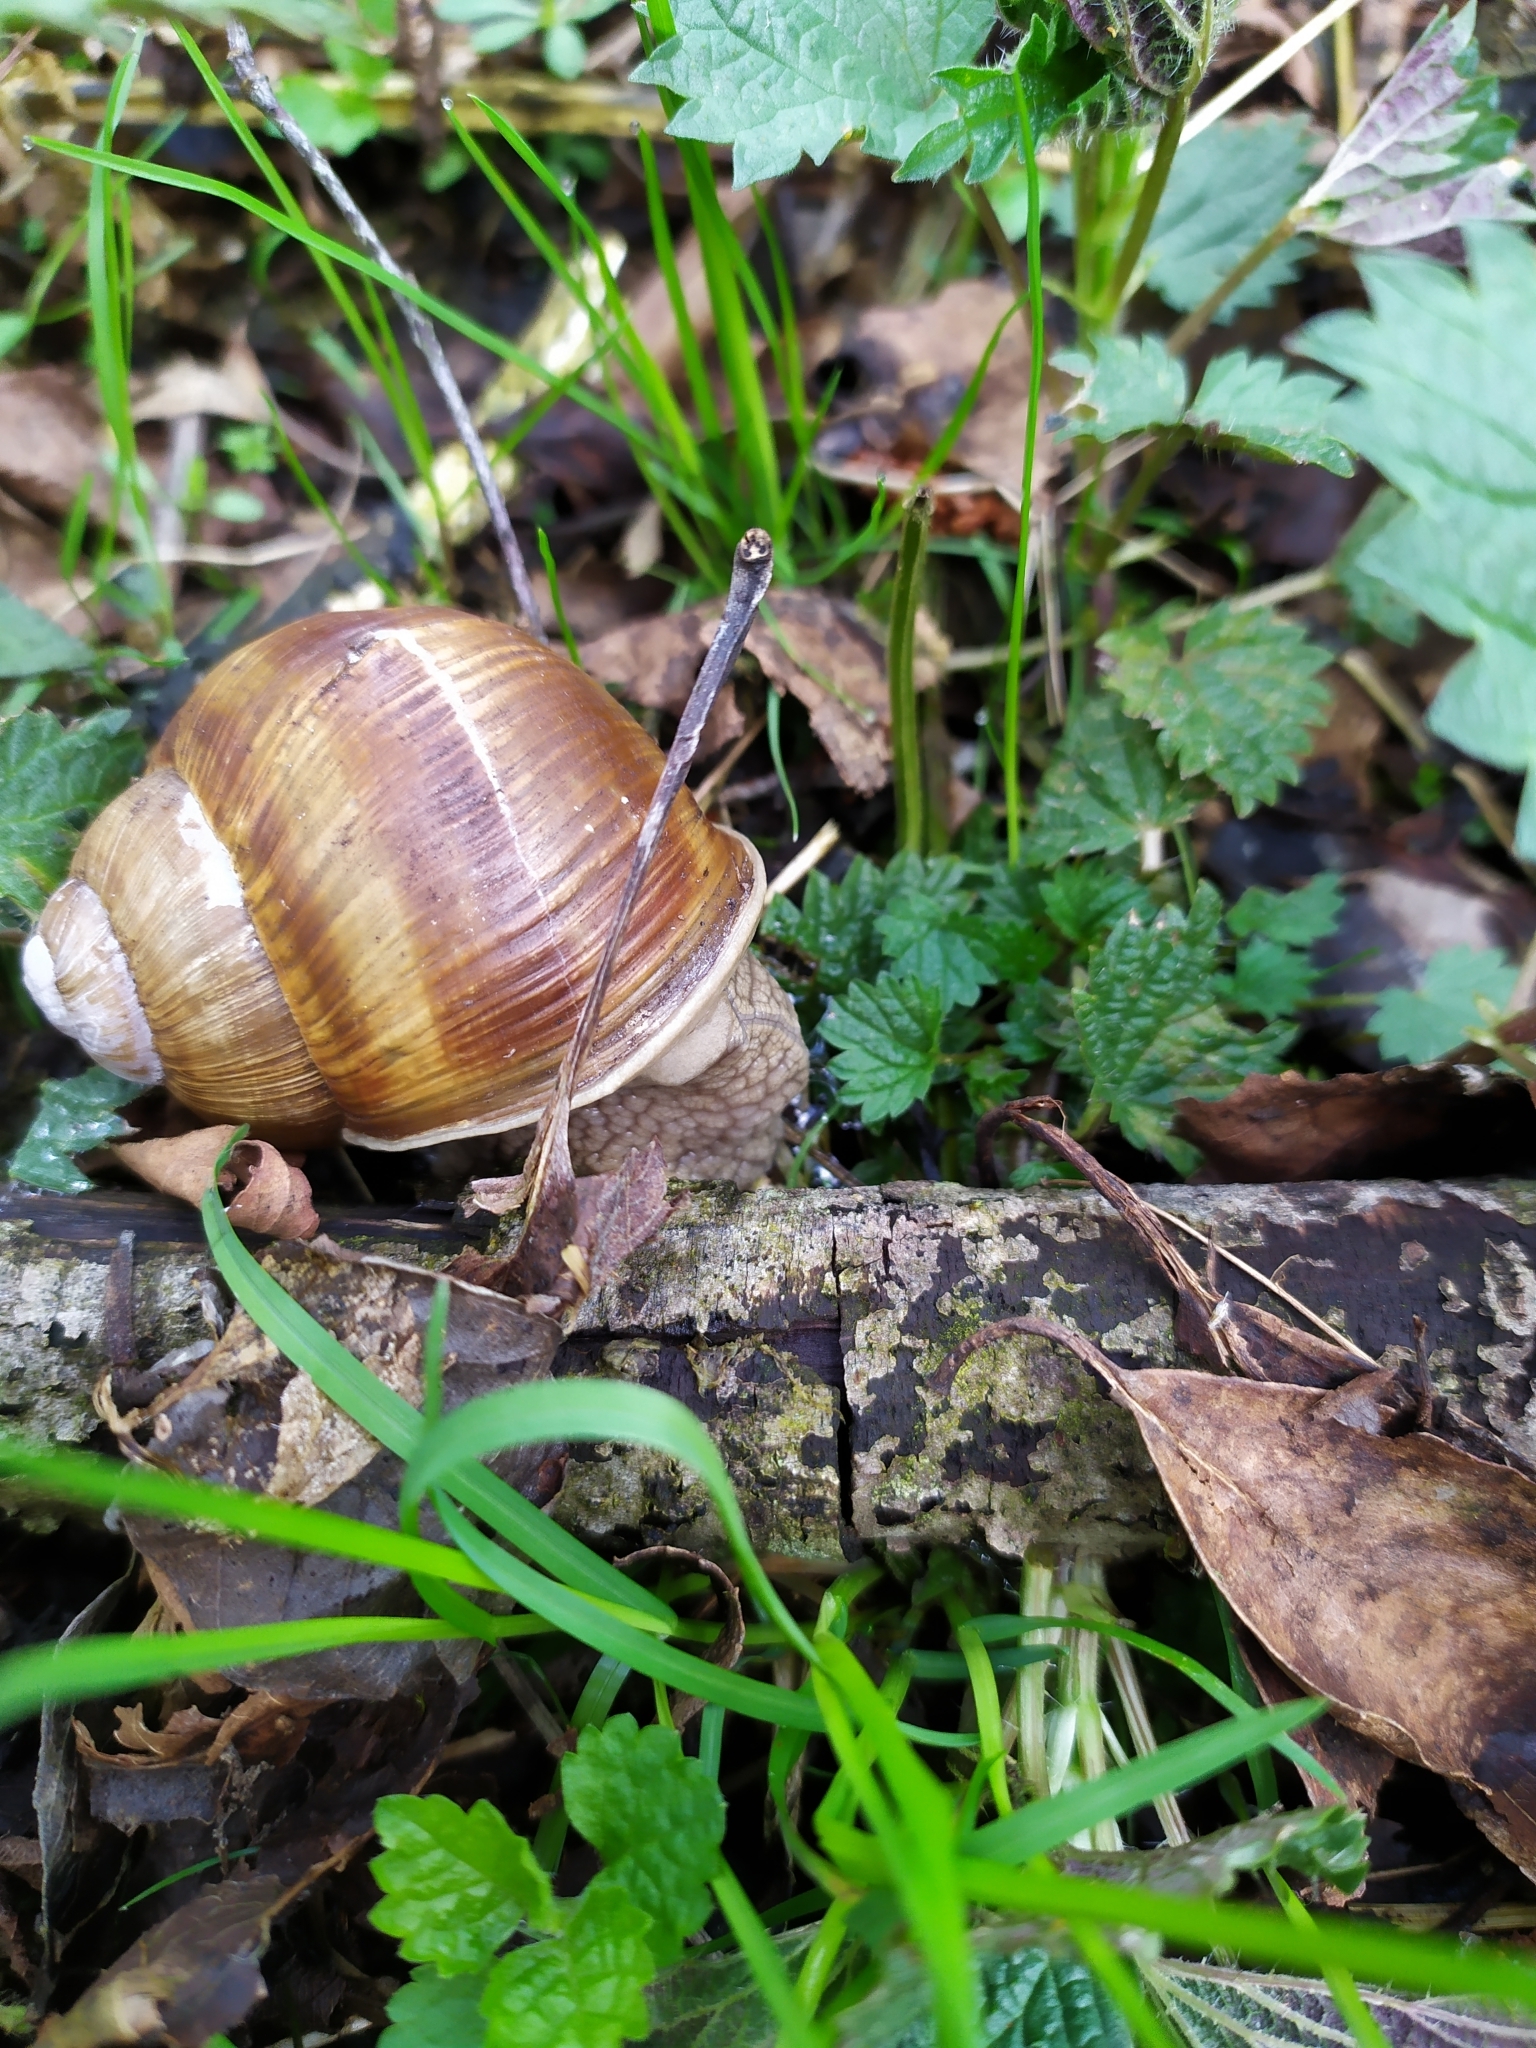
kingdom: Animalia
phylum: Mollusca
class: Gastropoda
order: Stylommatophora
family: Helicidae
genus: Helix
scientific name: Helix pomatia
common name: Roman snail
